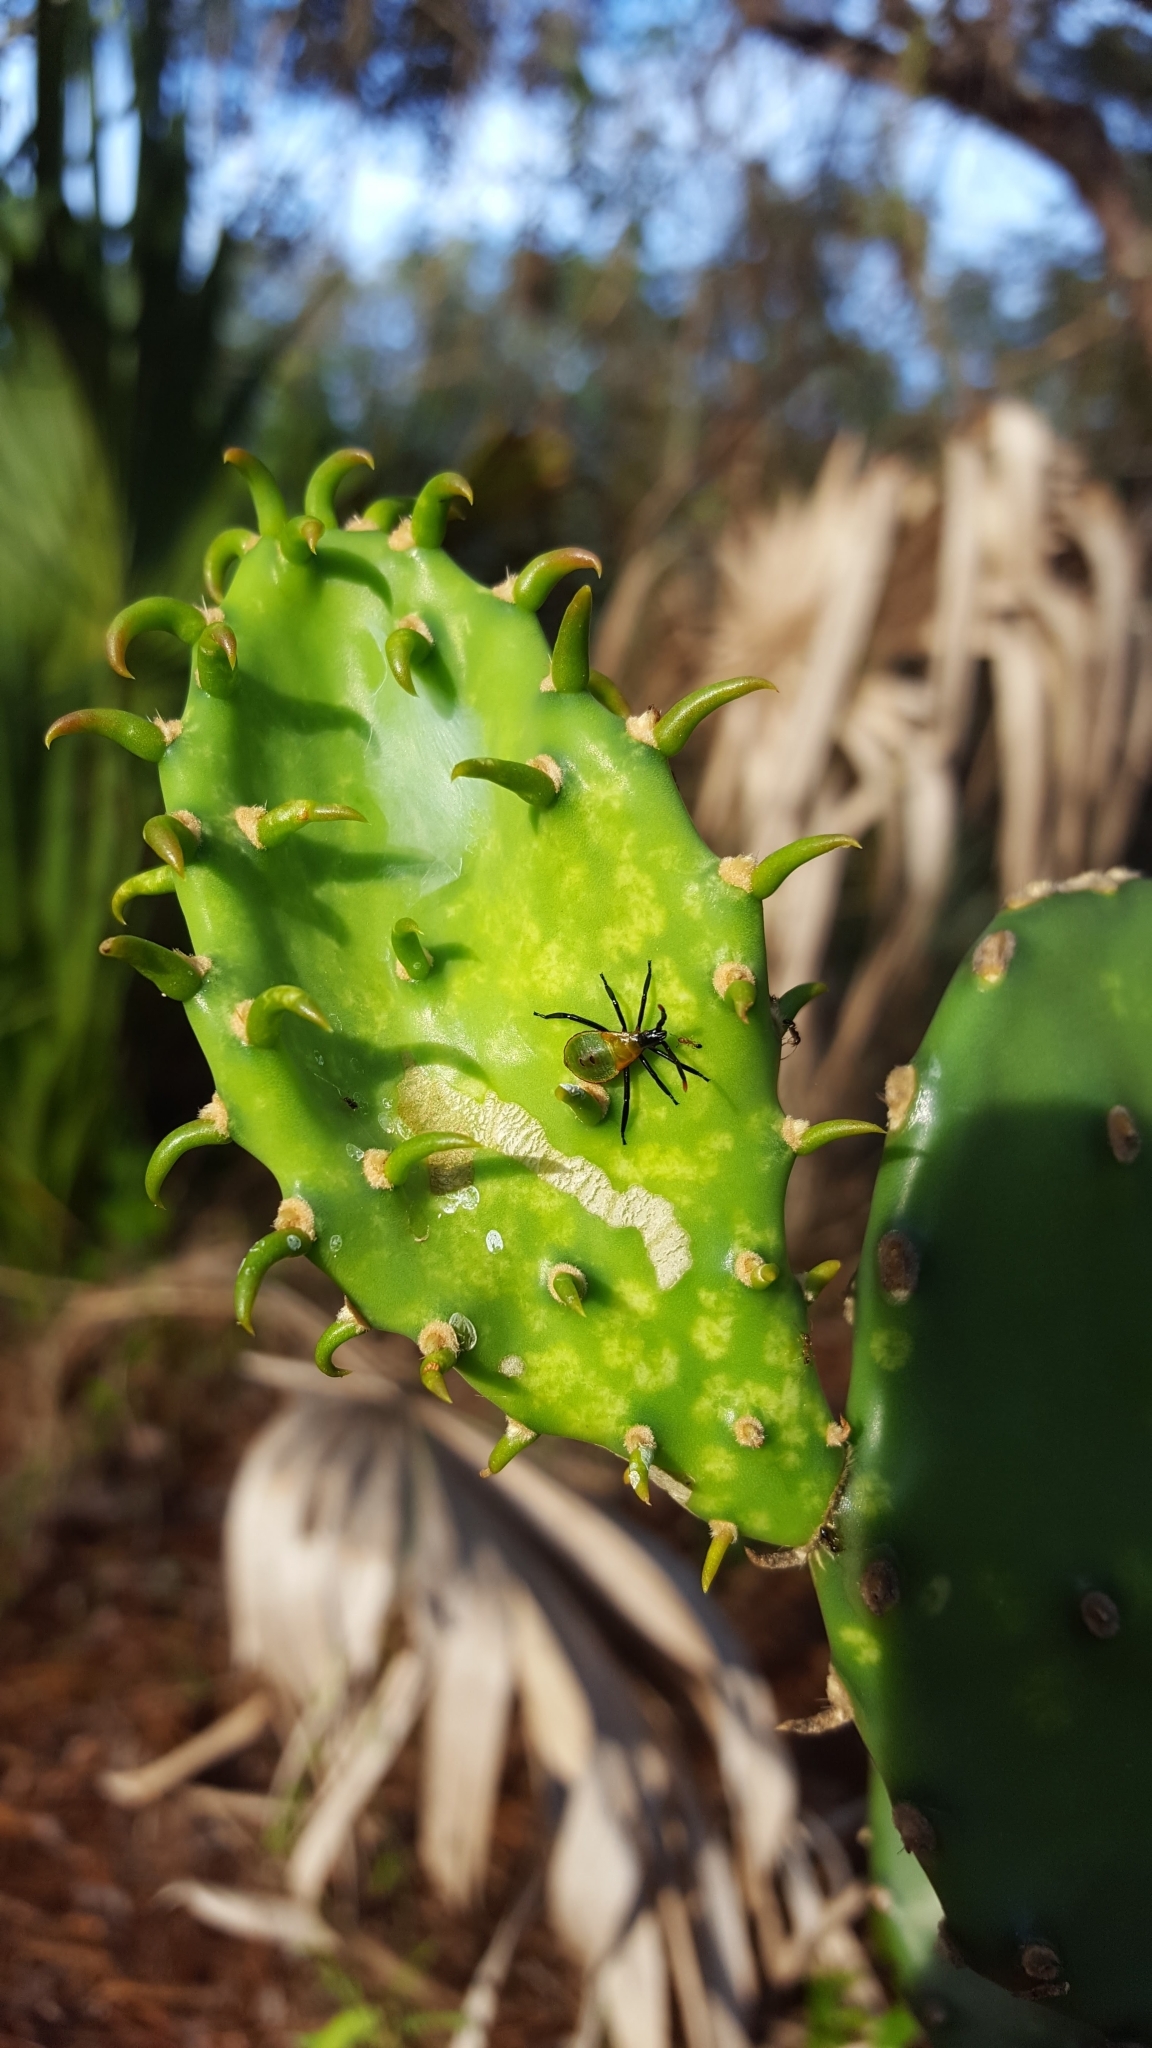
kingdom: Animalia
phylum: Arthropoda
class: Insecta
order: Hemiptera
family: Coreidae
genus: Chelinidea
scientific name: Chelinidea vittiger
